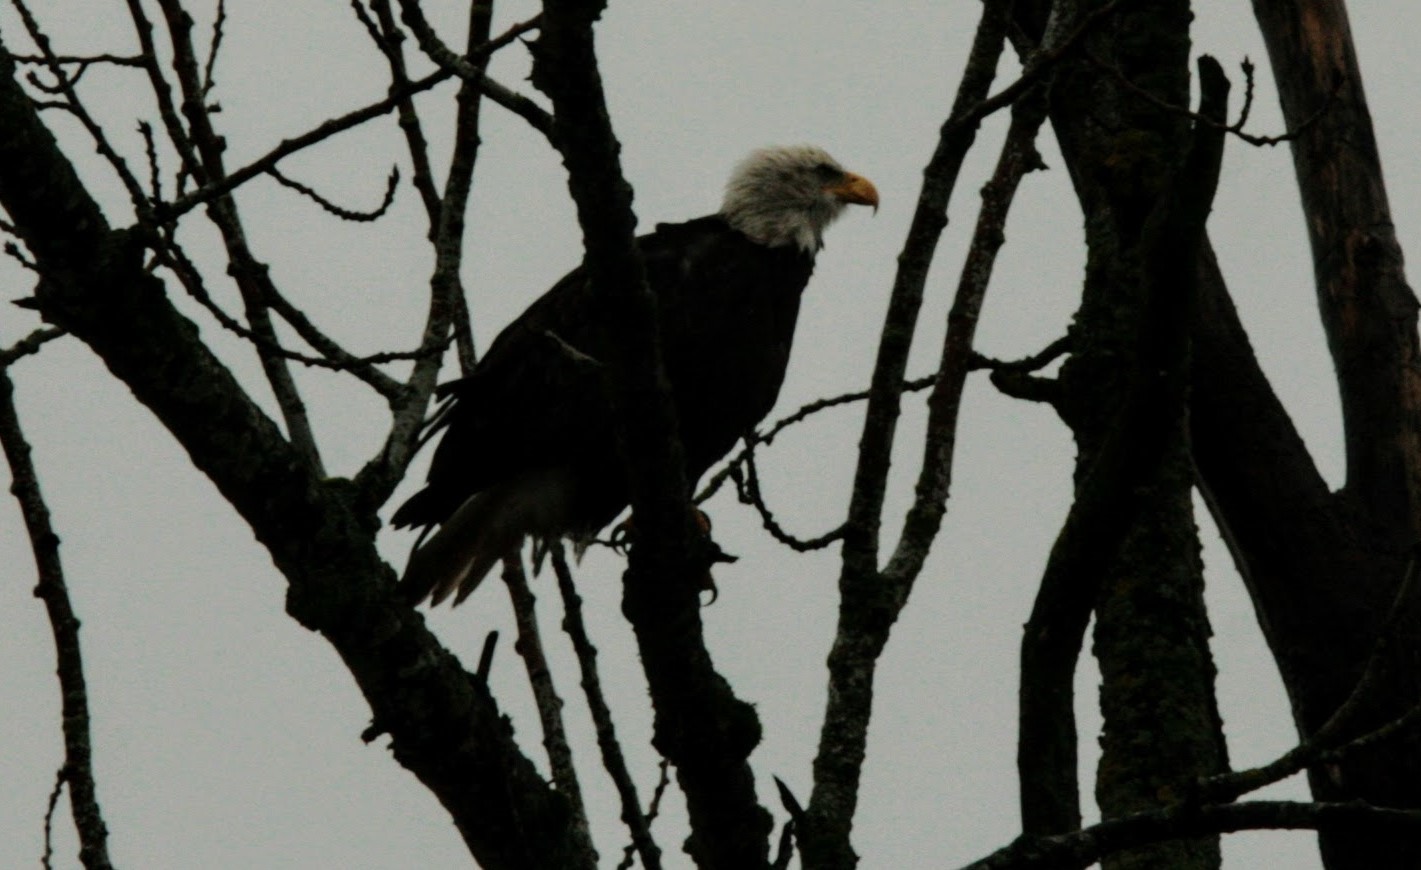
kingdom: Animalia
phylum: Chordata
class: Aves
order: Accipitriformes
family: Accipitridae
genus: Haliaeetus
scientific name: Haliaeetus leucocephalus
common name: Bald eagle
